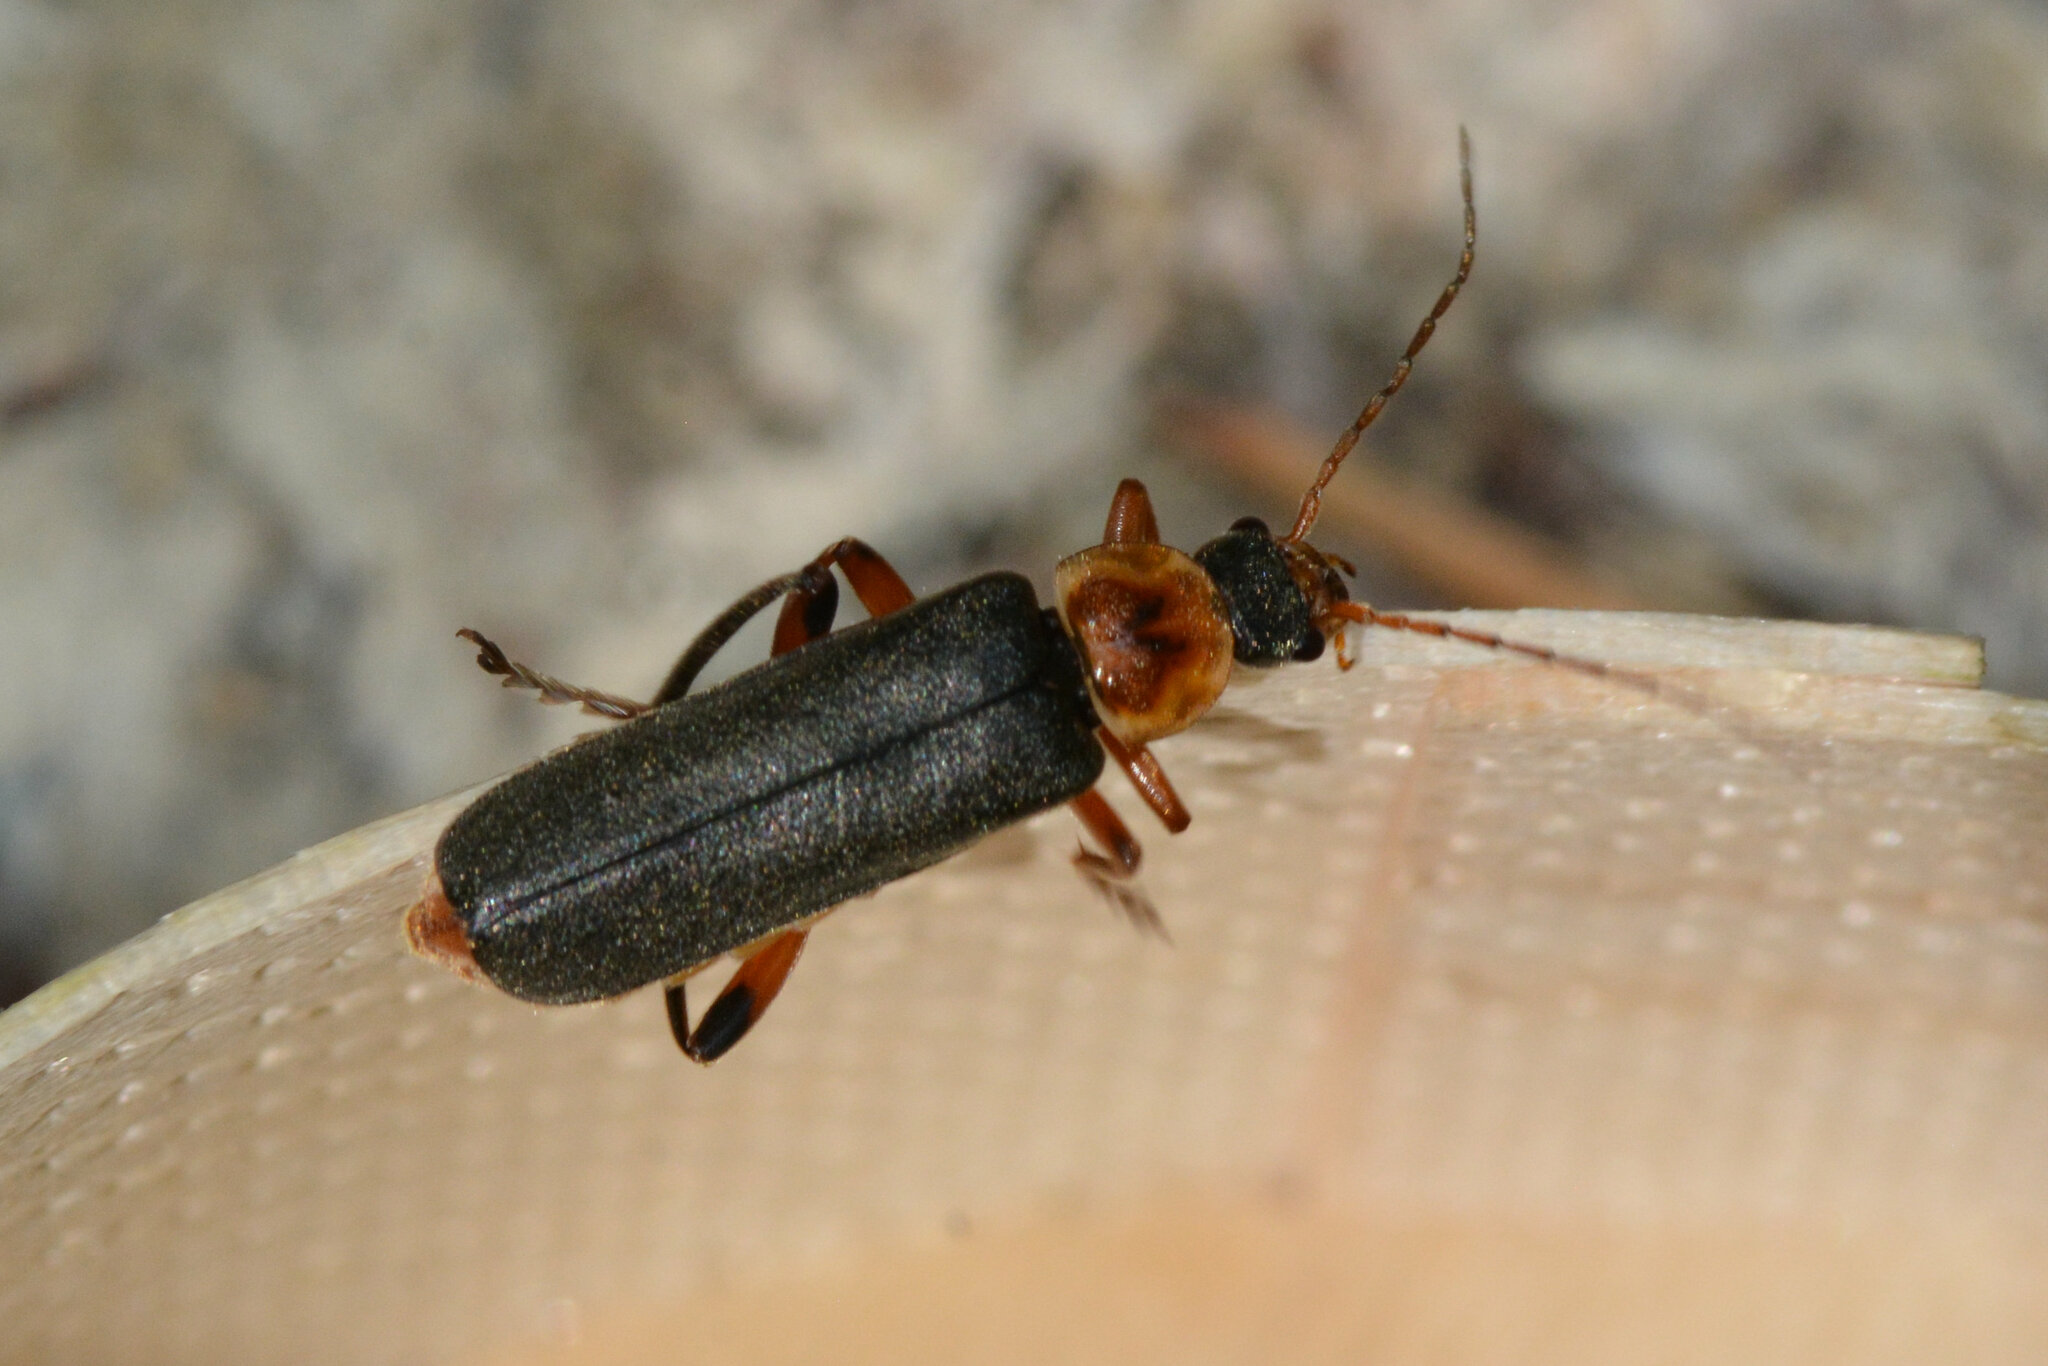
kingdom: Animalia
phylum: Arthropoda
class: Insecta
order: Coleoptera
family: Cantharidae
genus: Cantharis
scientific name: Cantharis nigricans
